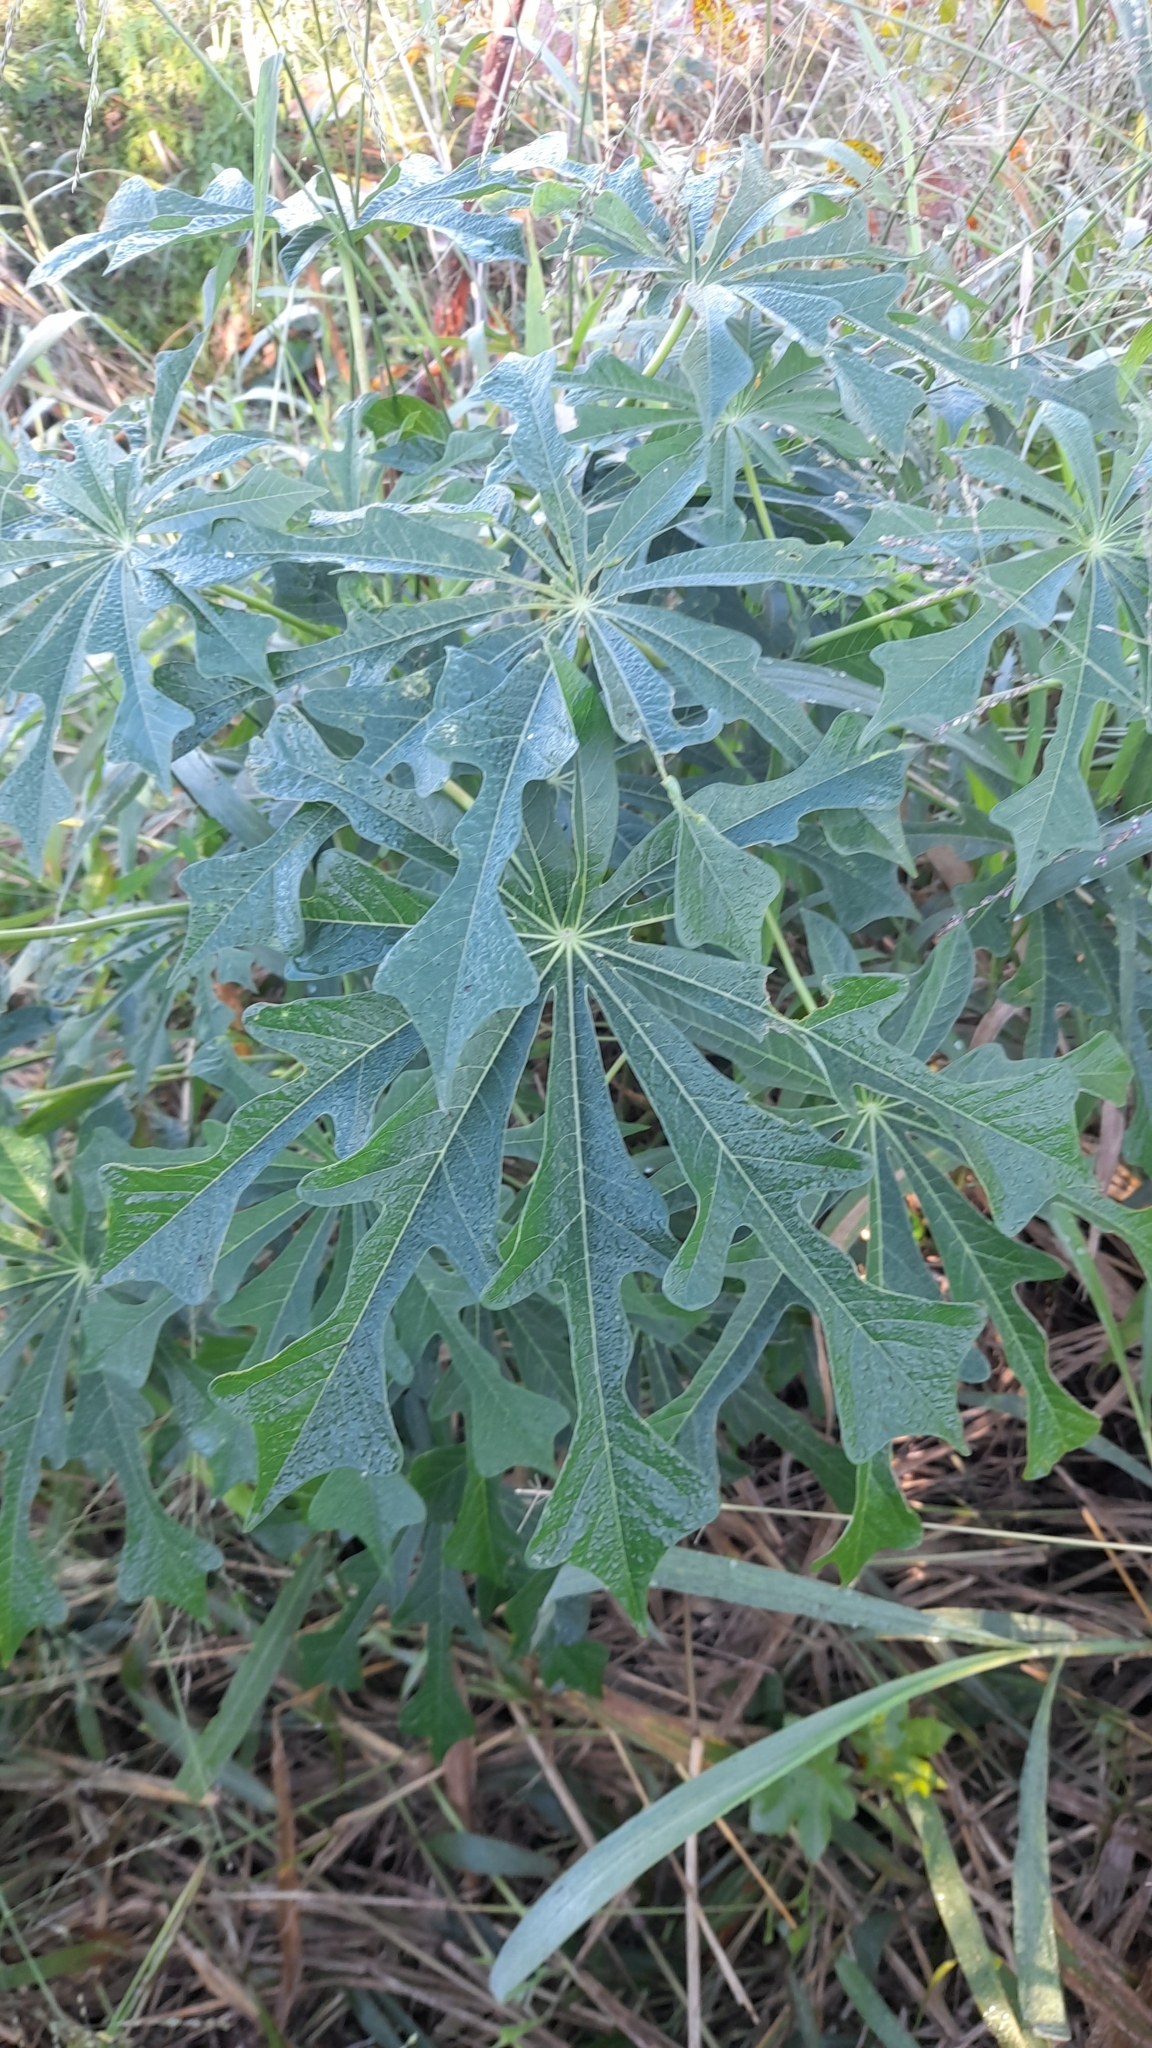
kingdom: Plantae
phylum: Tracheophyta
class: Magnoliopsida
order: Malpighiales
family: Euphorbiaceae
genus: Manihot
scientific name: Manihot grahamii
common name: Graham's manihot
